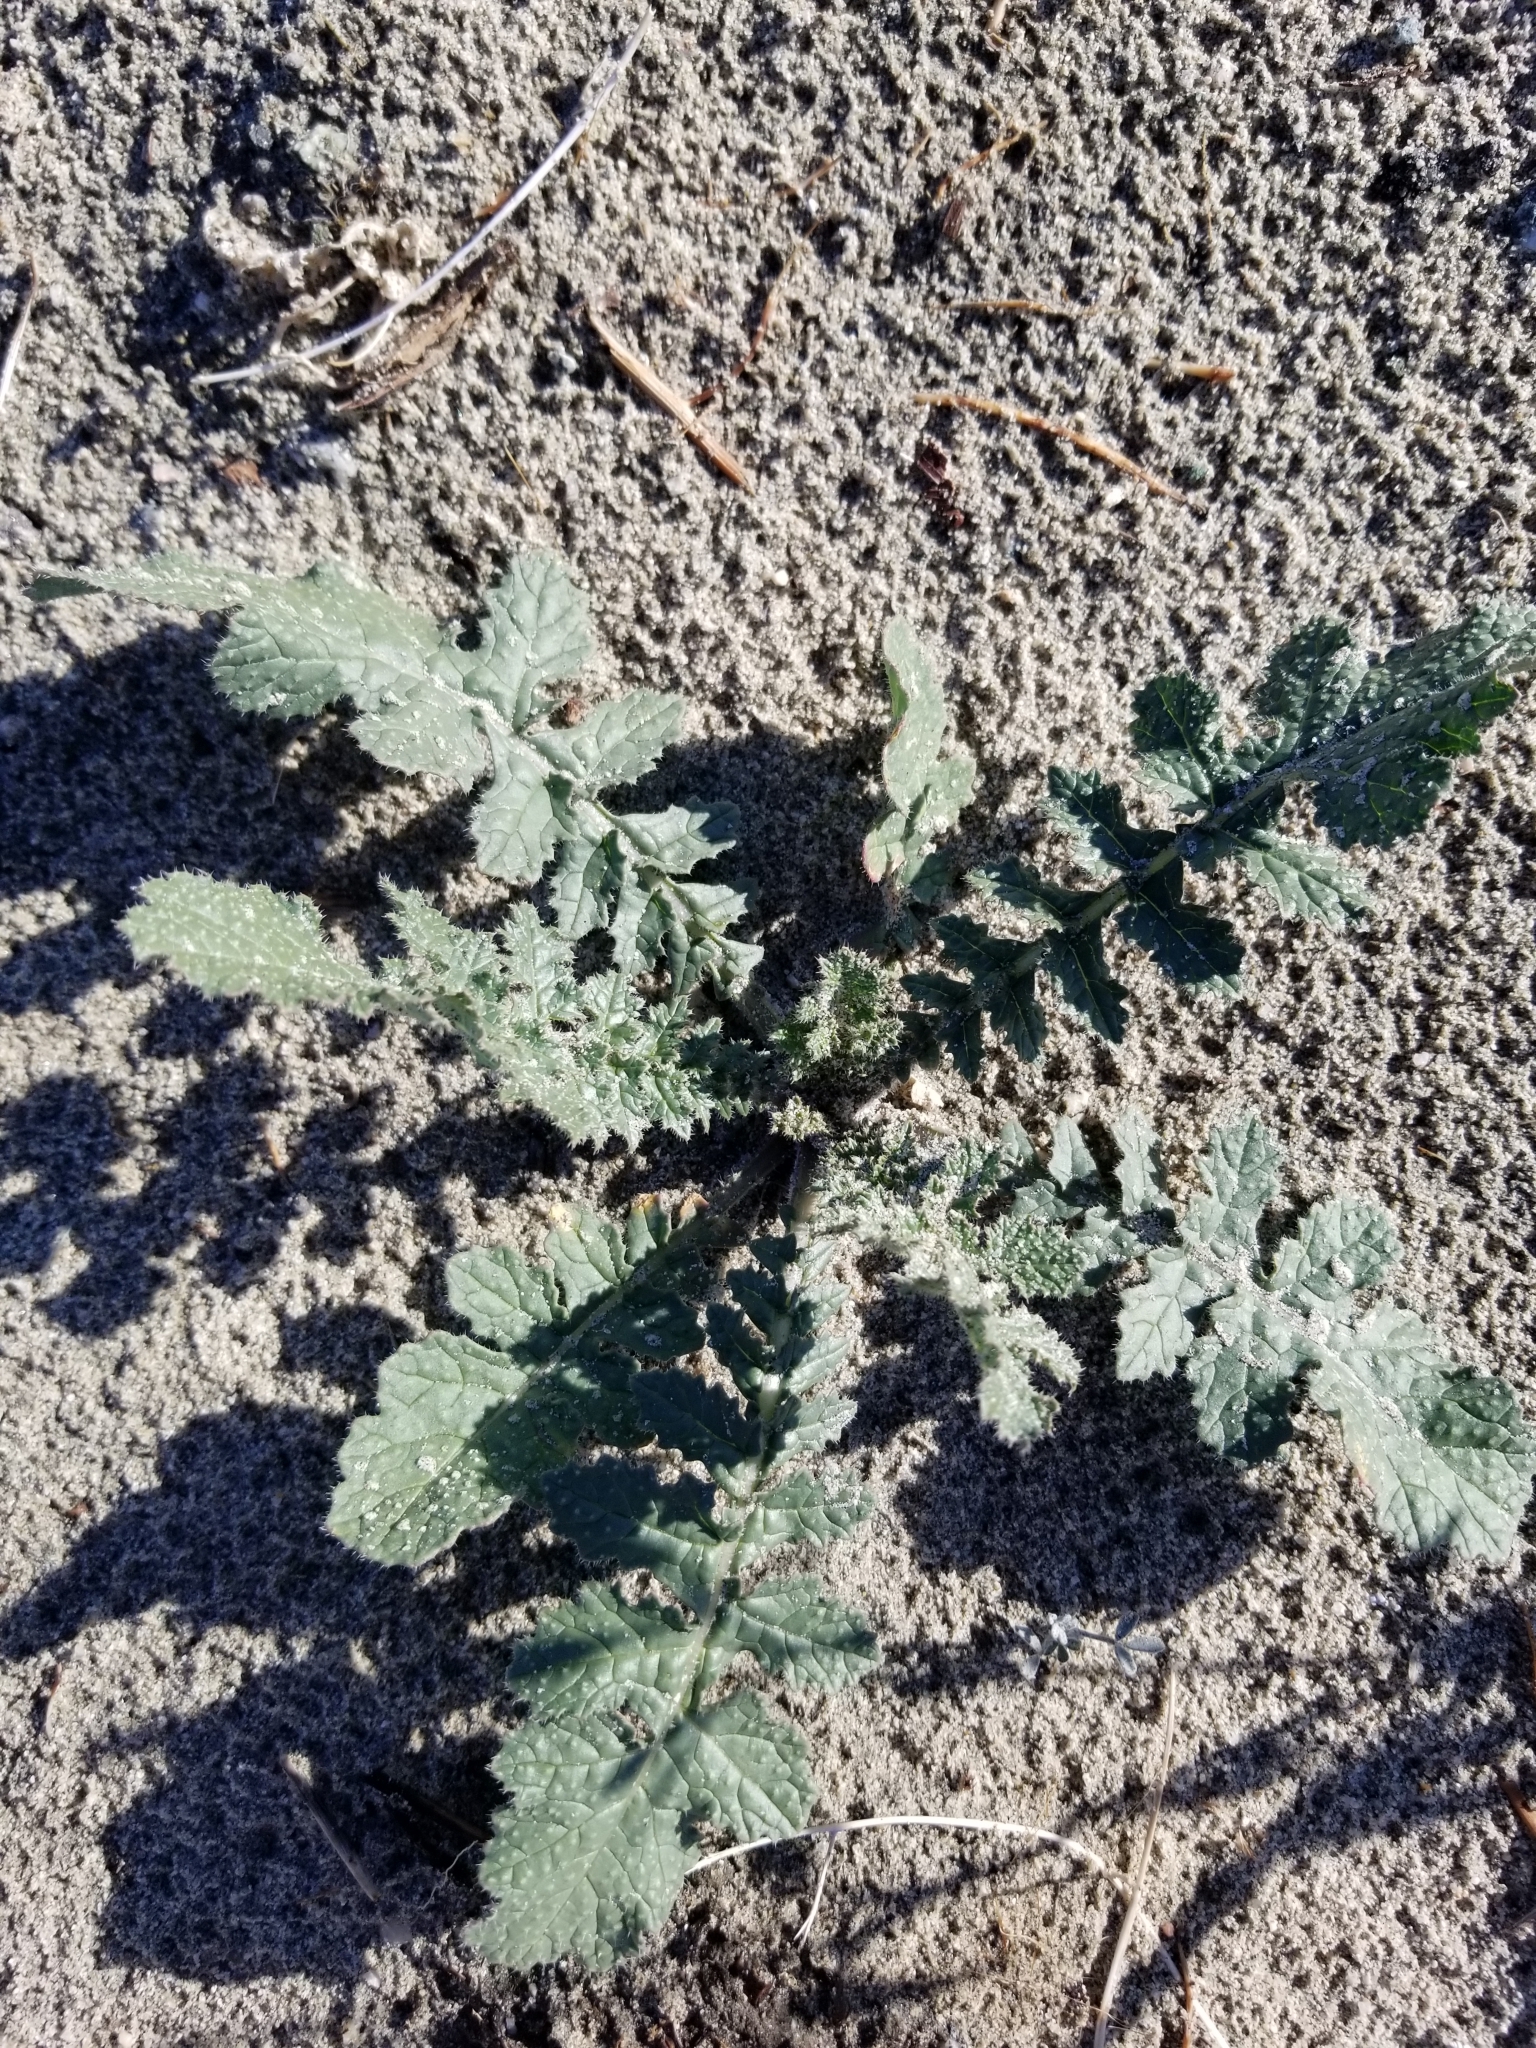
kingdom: Plantae
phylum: Tracheophyta
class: Magnoliopsida
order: Brassicales
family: Brassicaceae
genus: Brassica
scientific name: Brassica tournefortii
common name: Pale cabbage
